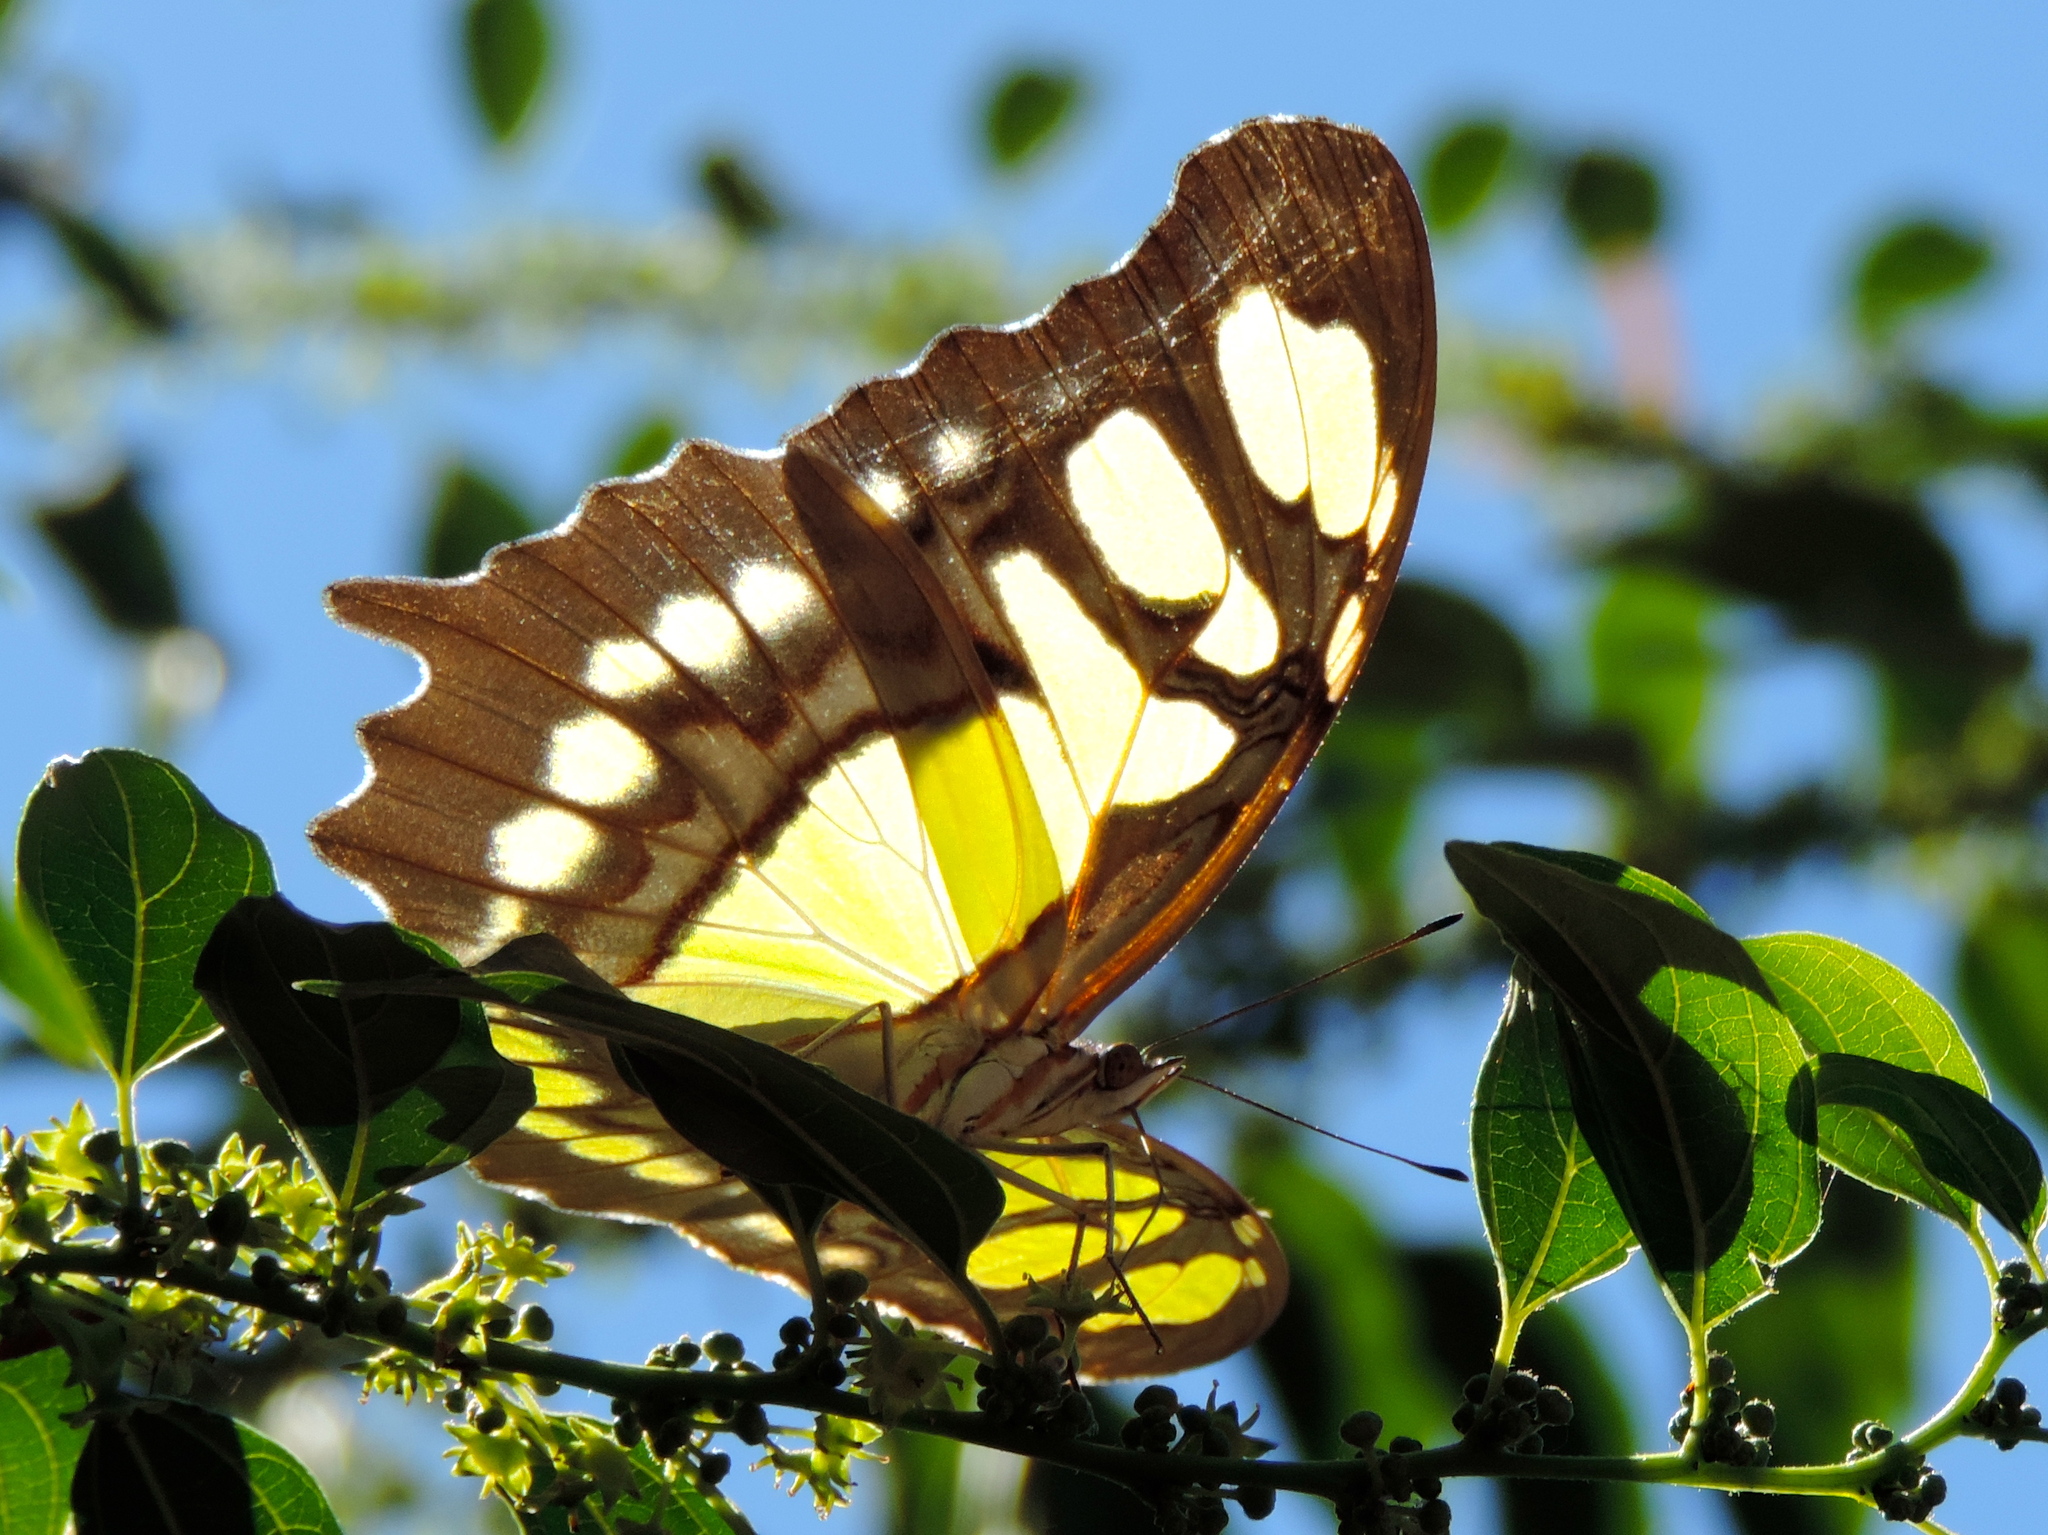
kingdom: Animalia
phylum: Arthropoda
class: Insecta
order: Lepidoptera
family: Nymphalidae
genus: Siproeta
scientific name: Siproeta stelenes
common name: Malachite
